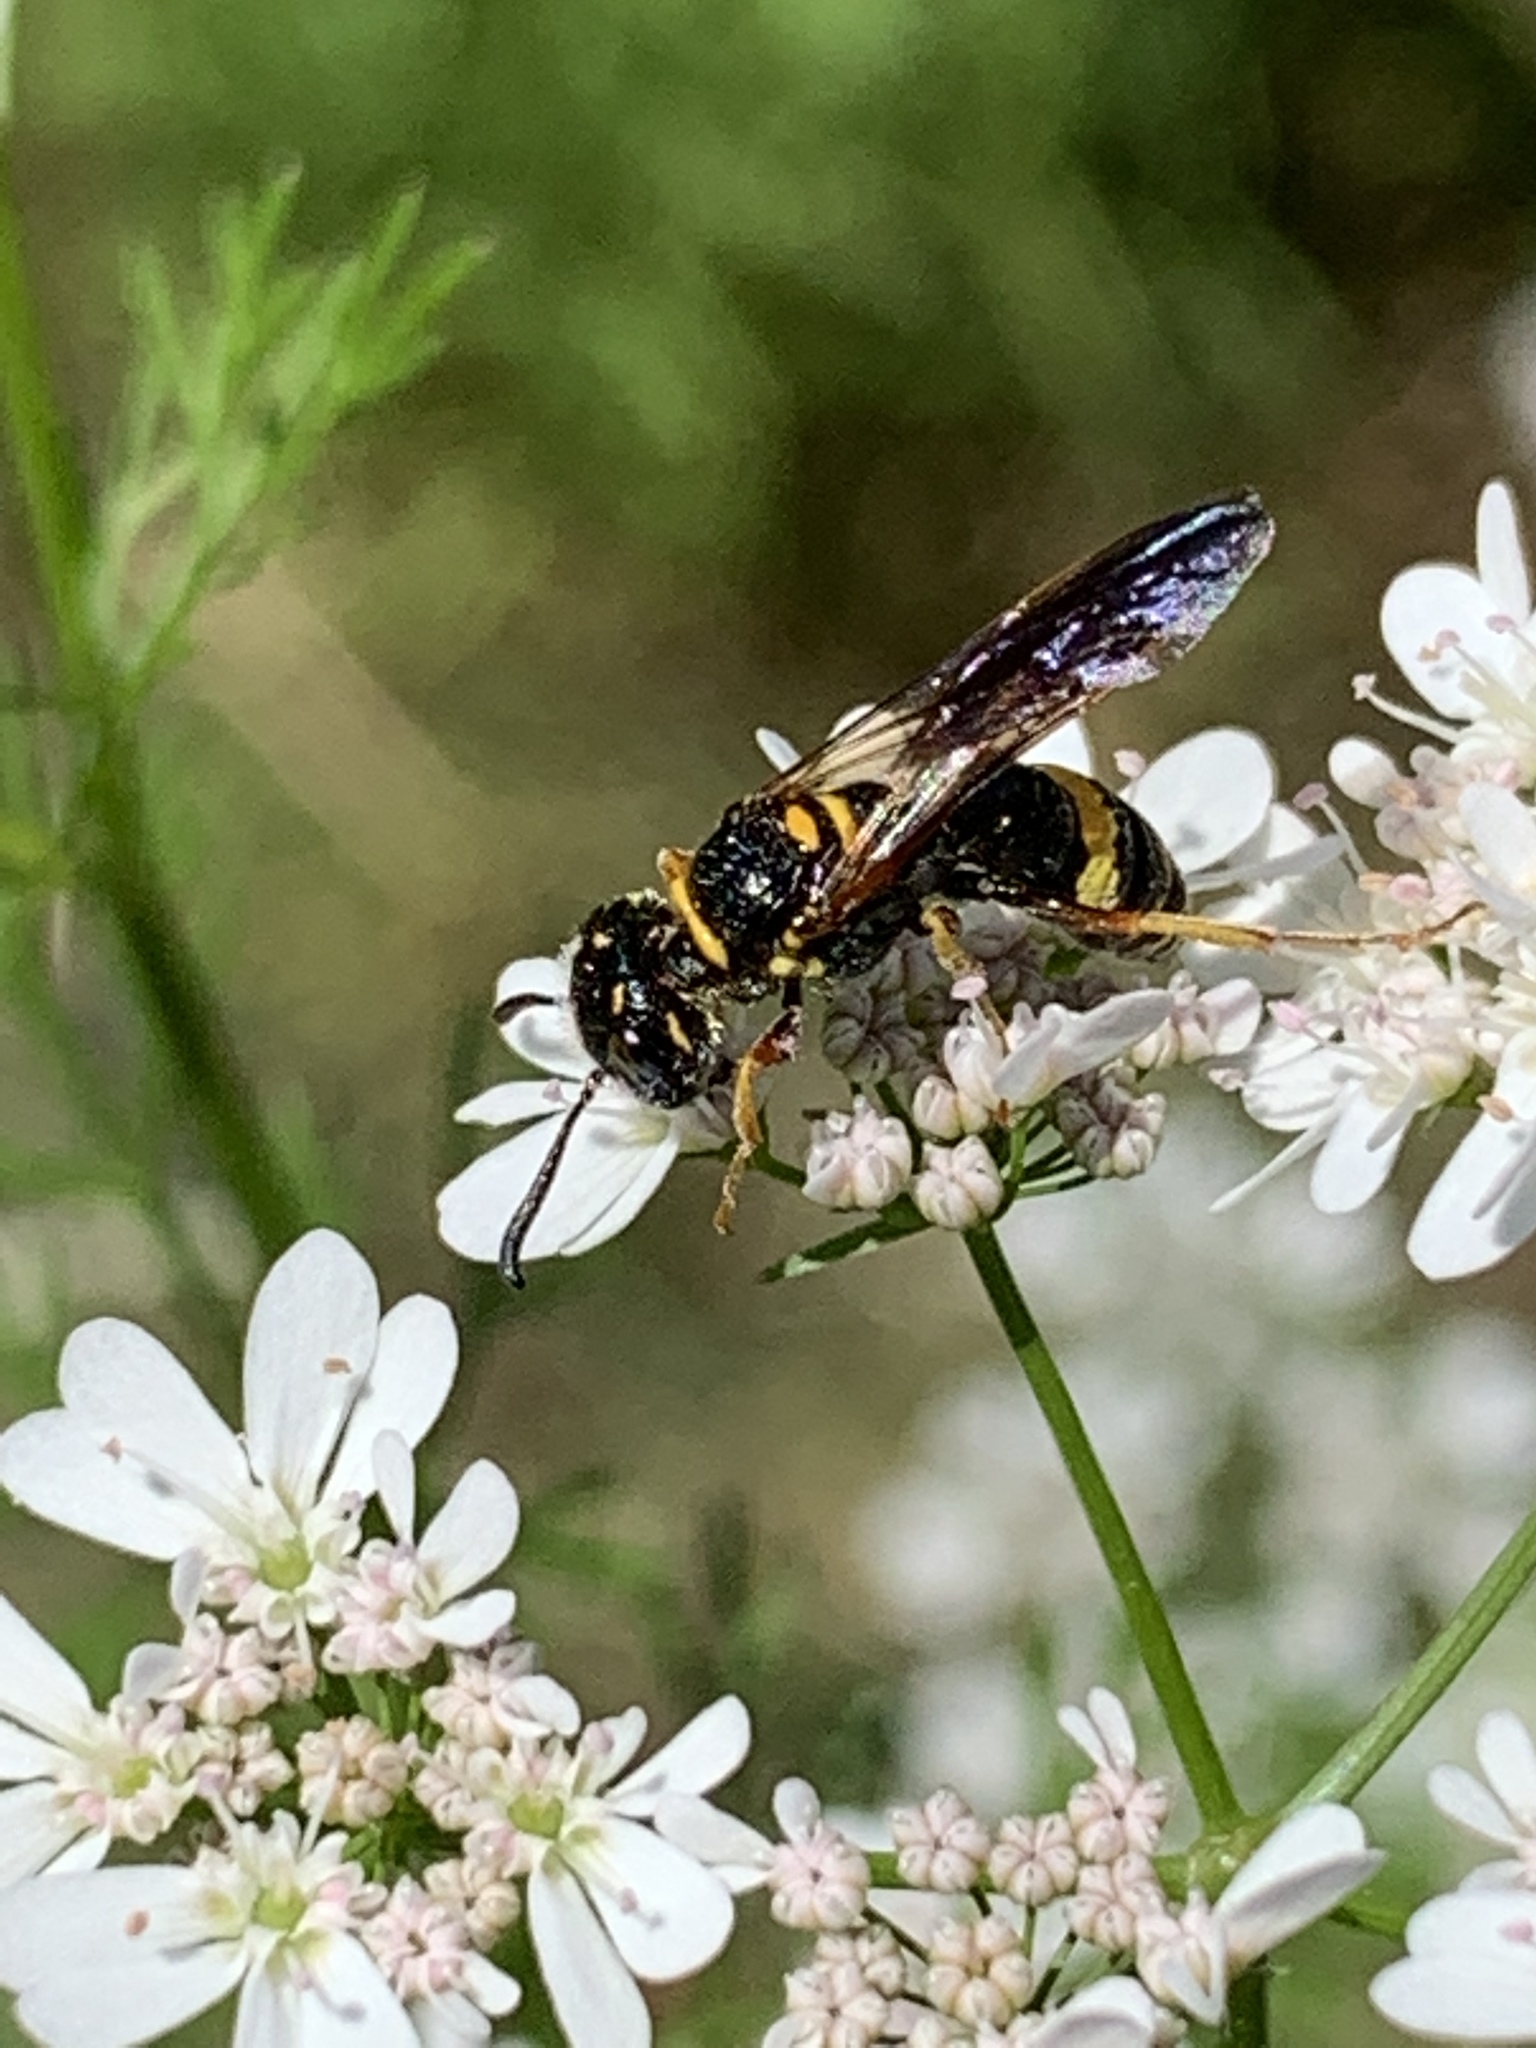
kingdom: Animalia
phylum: Arthropoda
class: Insecta
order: Hymenoptera
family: Crabronidae
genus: Philanthus
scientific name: Philanthus gibbosus
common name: Humped beewolf
